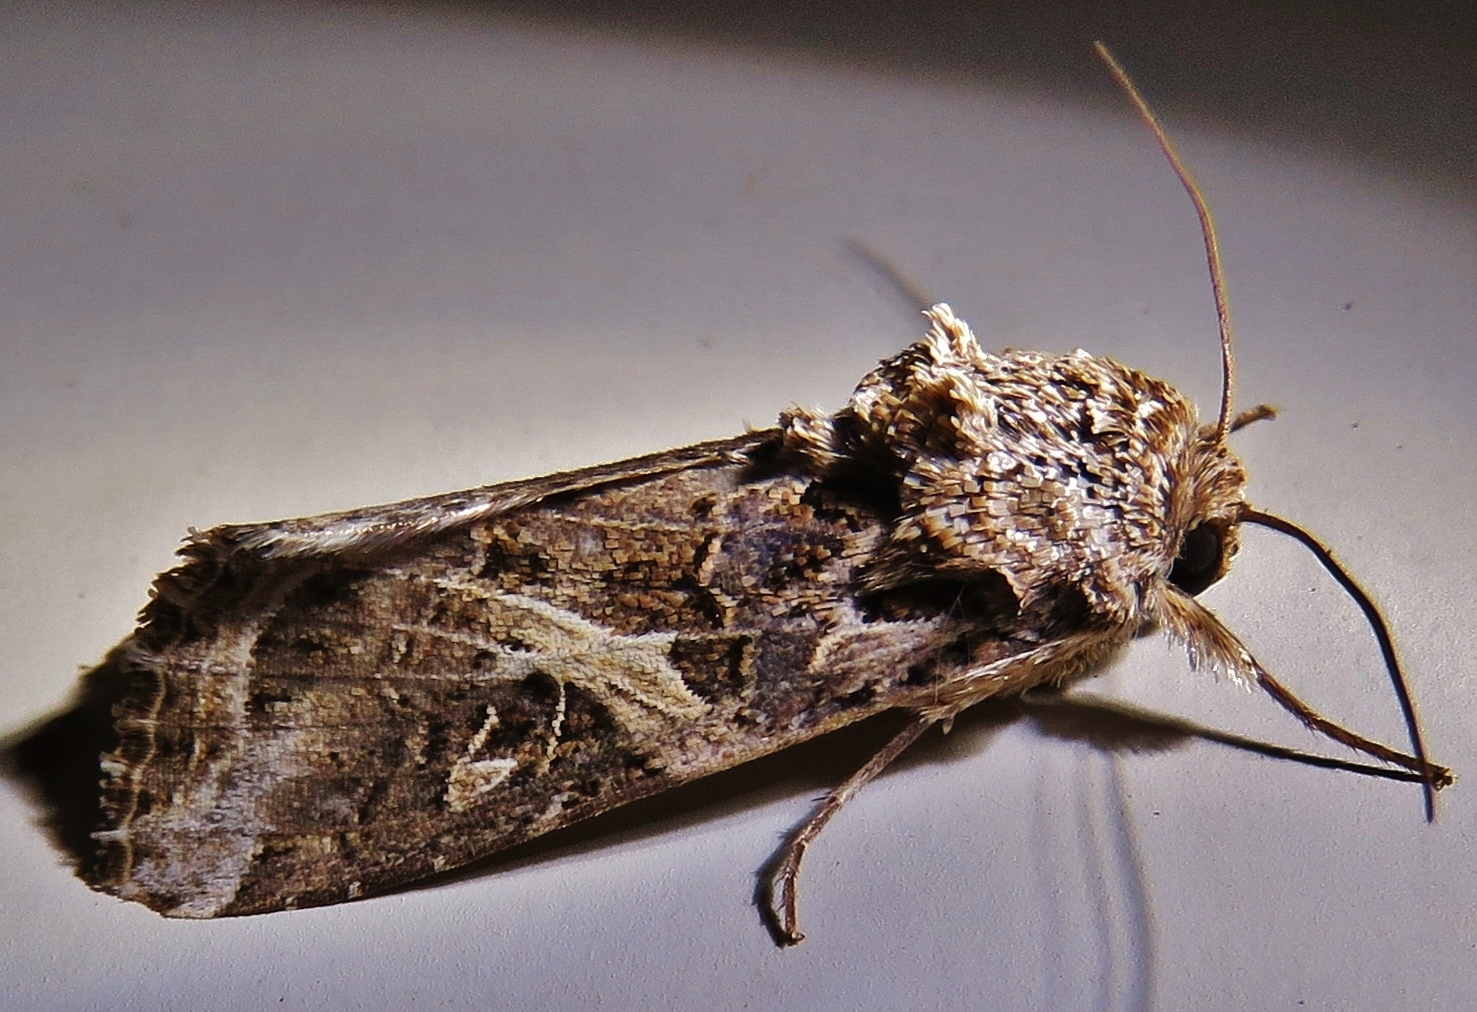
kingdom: Animalia
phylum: Arthropoda
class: Insecta
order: Lepidoptera
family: Noctuidae
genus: Spodoptera
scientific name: Spodoptera ornithogalli
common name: Yellow-striped armyworm
